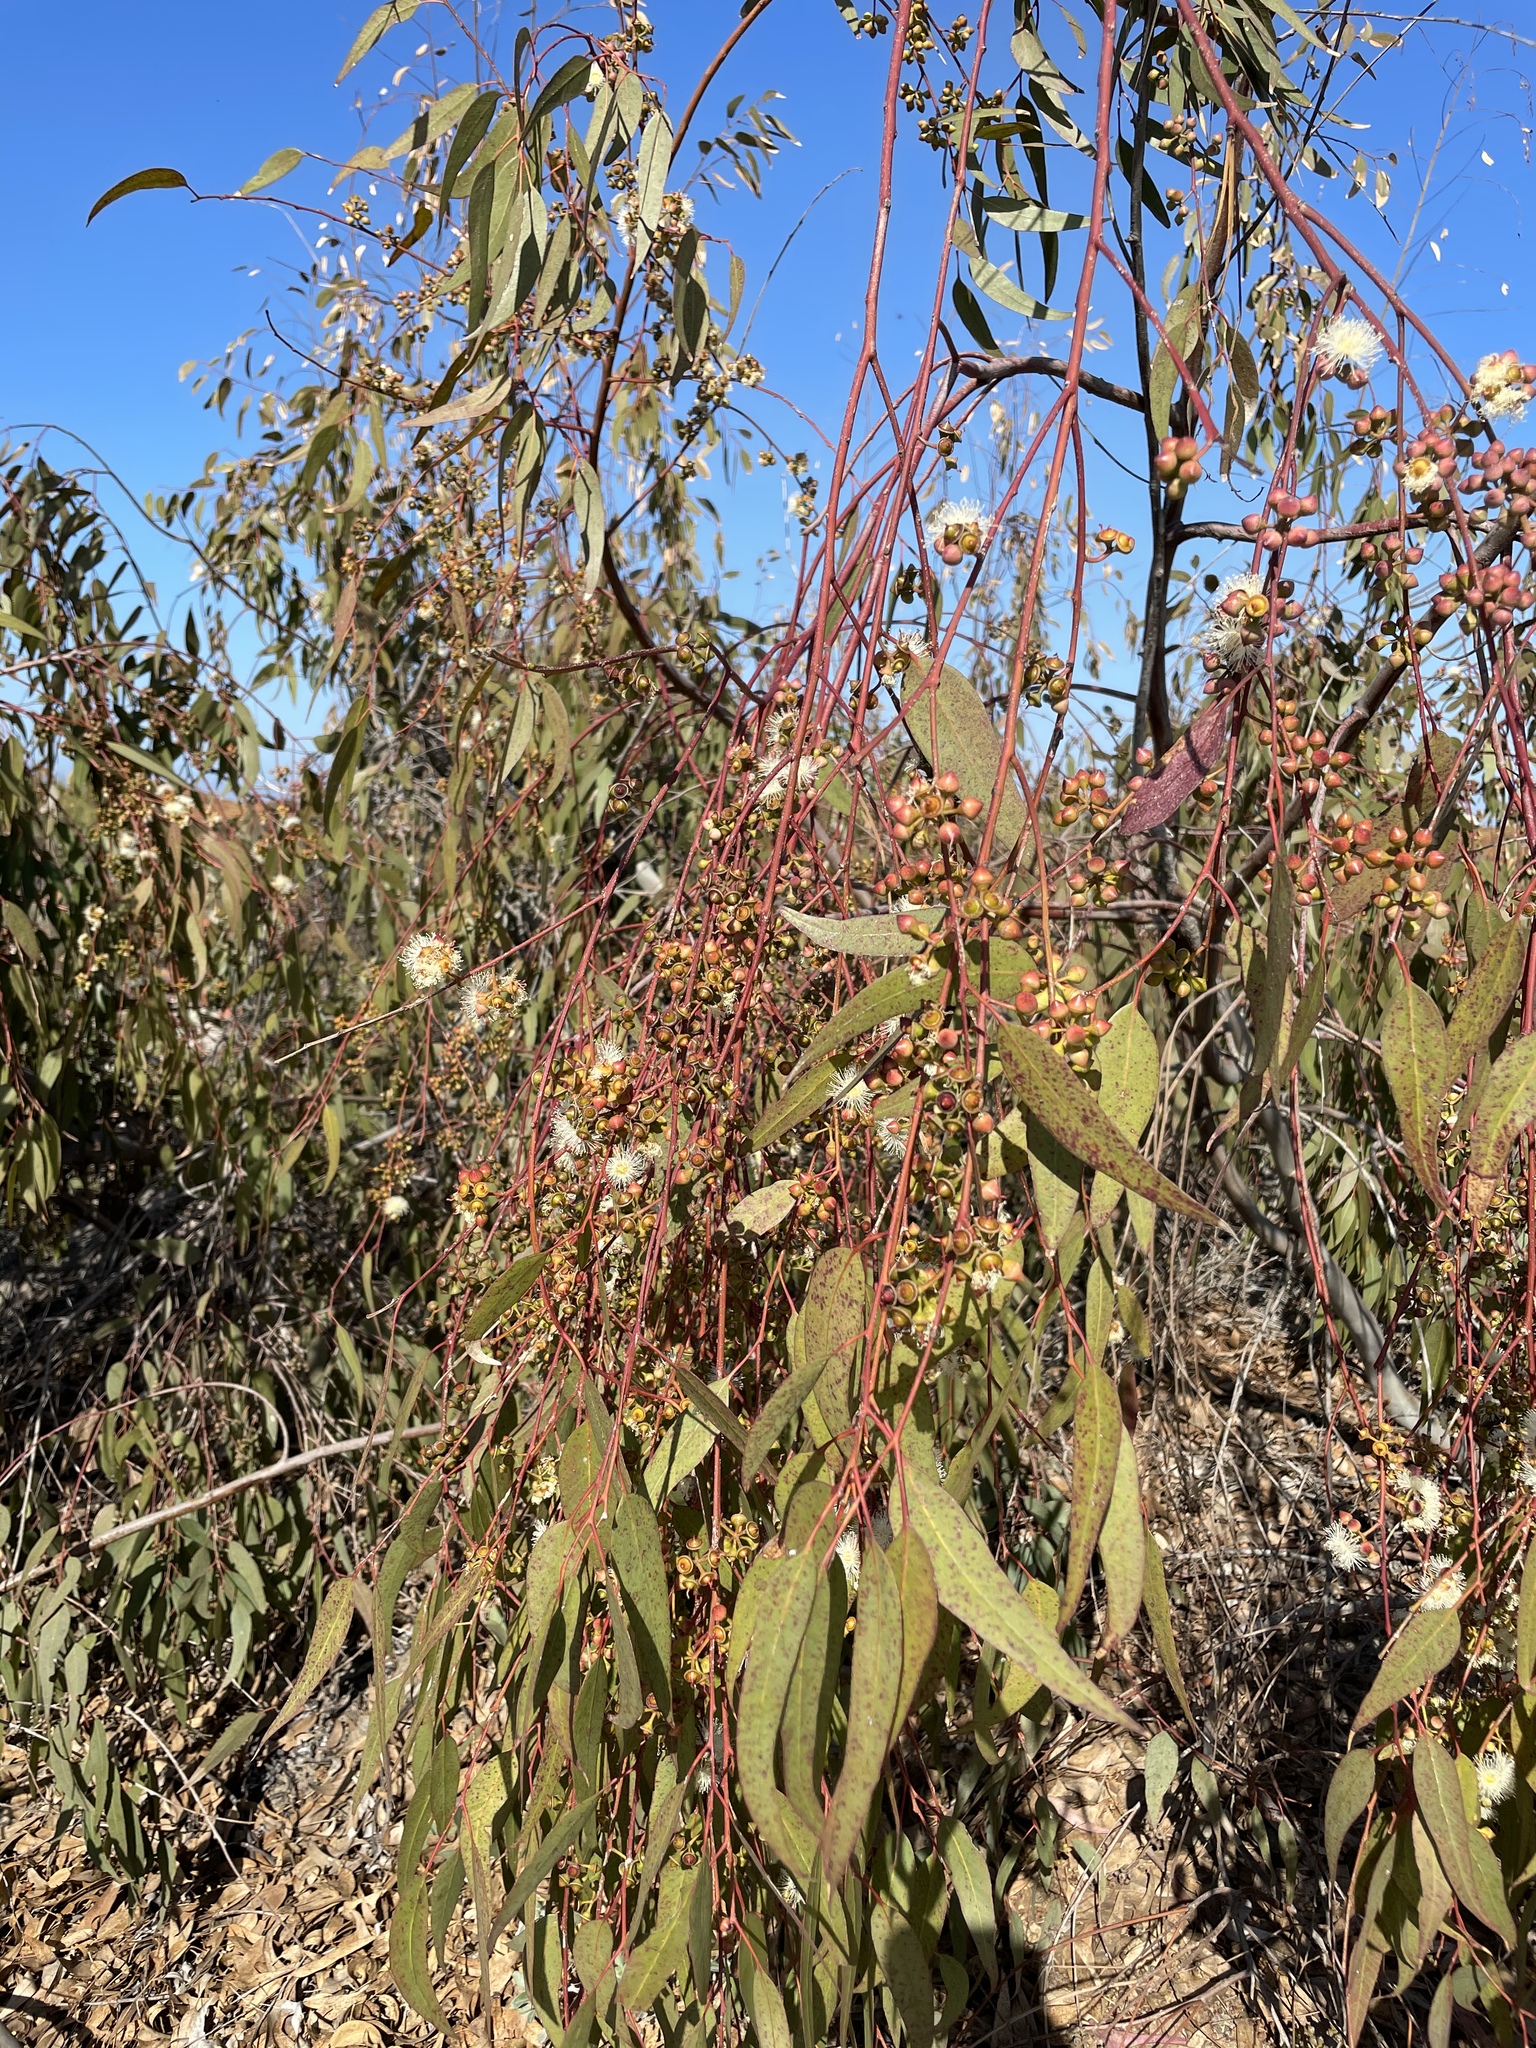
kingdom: Plantae
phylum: Tracheophyta
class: Magnoliopsida
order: Myrtales
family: Myrtaceae
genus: Eucalyptus
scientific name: Eucalyptus camaldulensis
